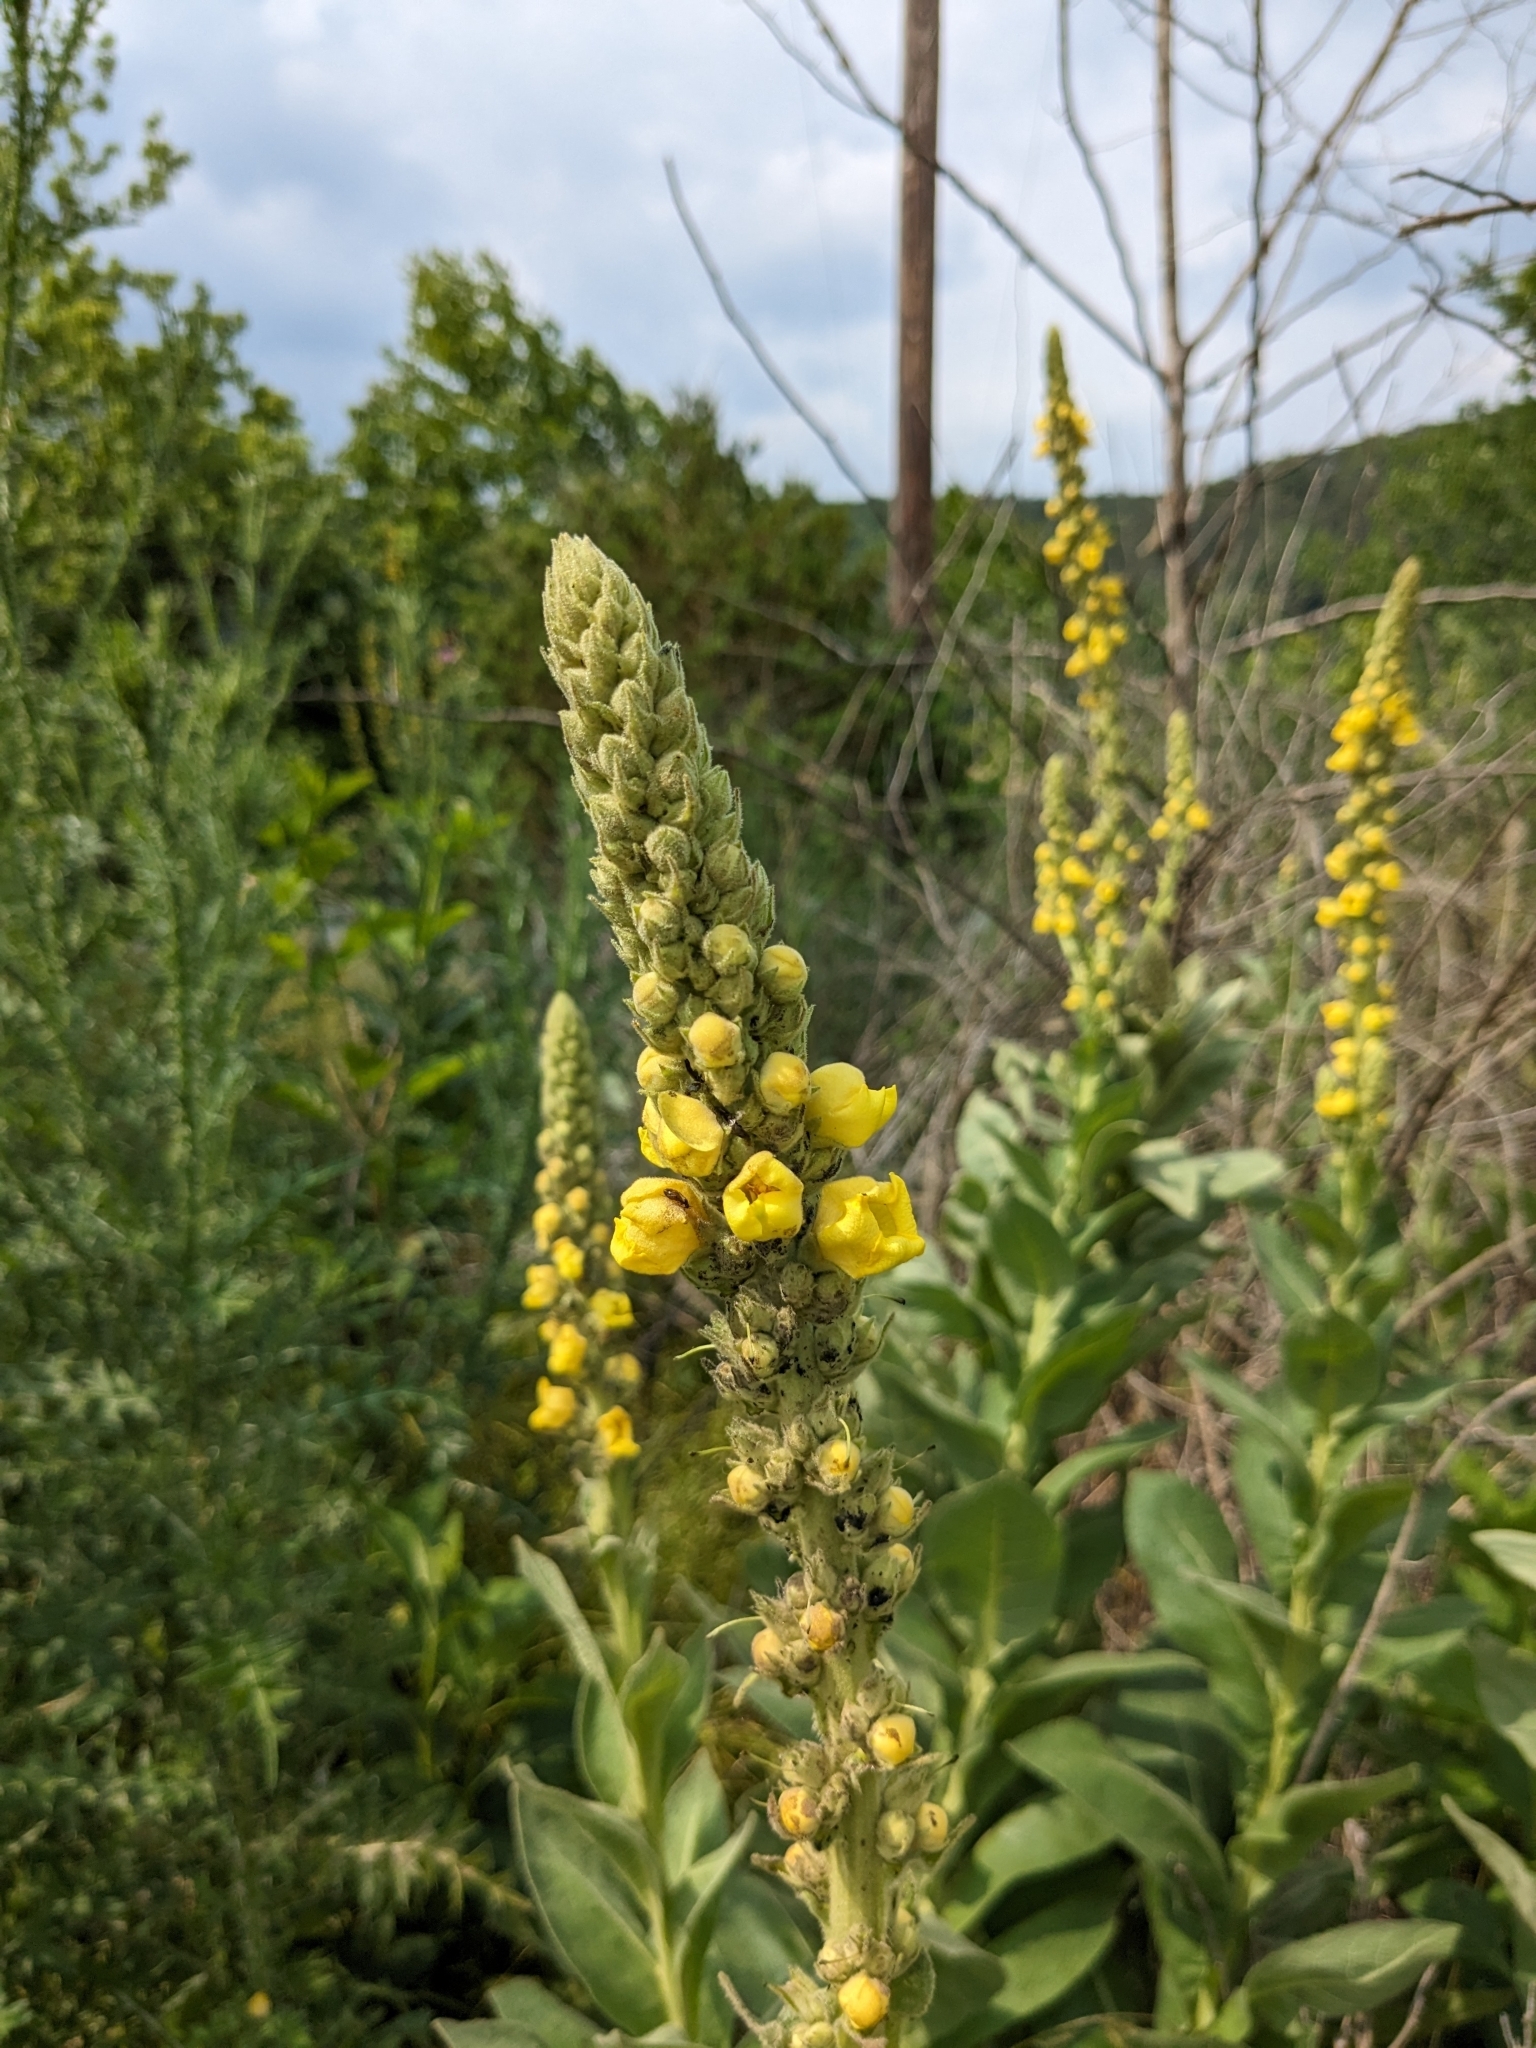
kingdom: Plantae
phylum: Tracheophyta
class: Magnoliopsida
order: Lamiales
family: Scrophulariaceae
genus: Verbascum
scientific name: Verbascum thapsus
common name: Common mullein
